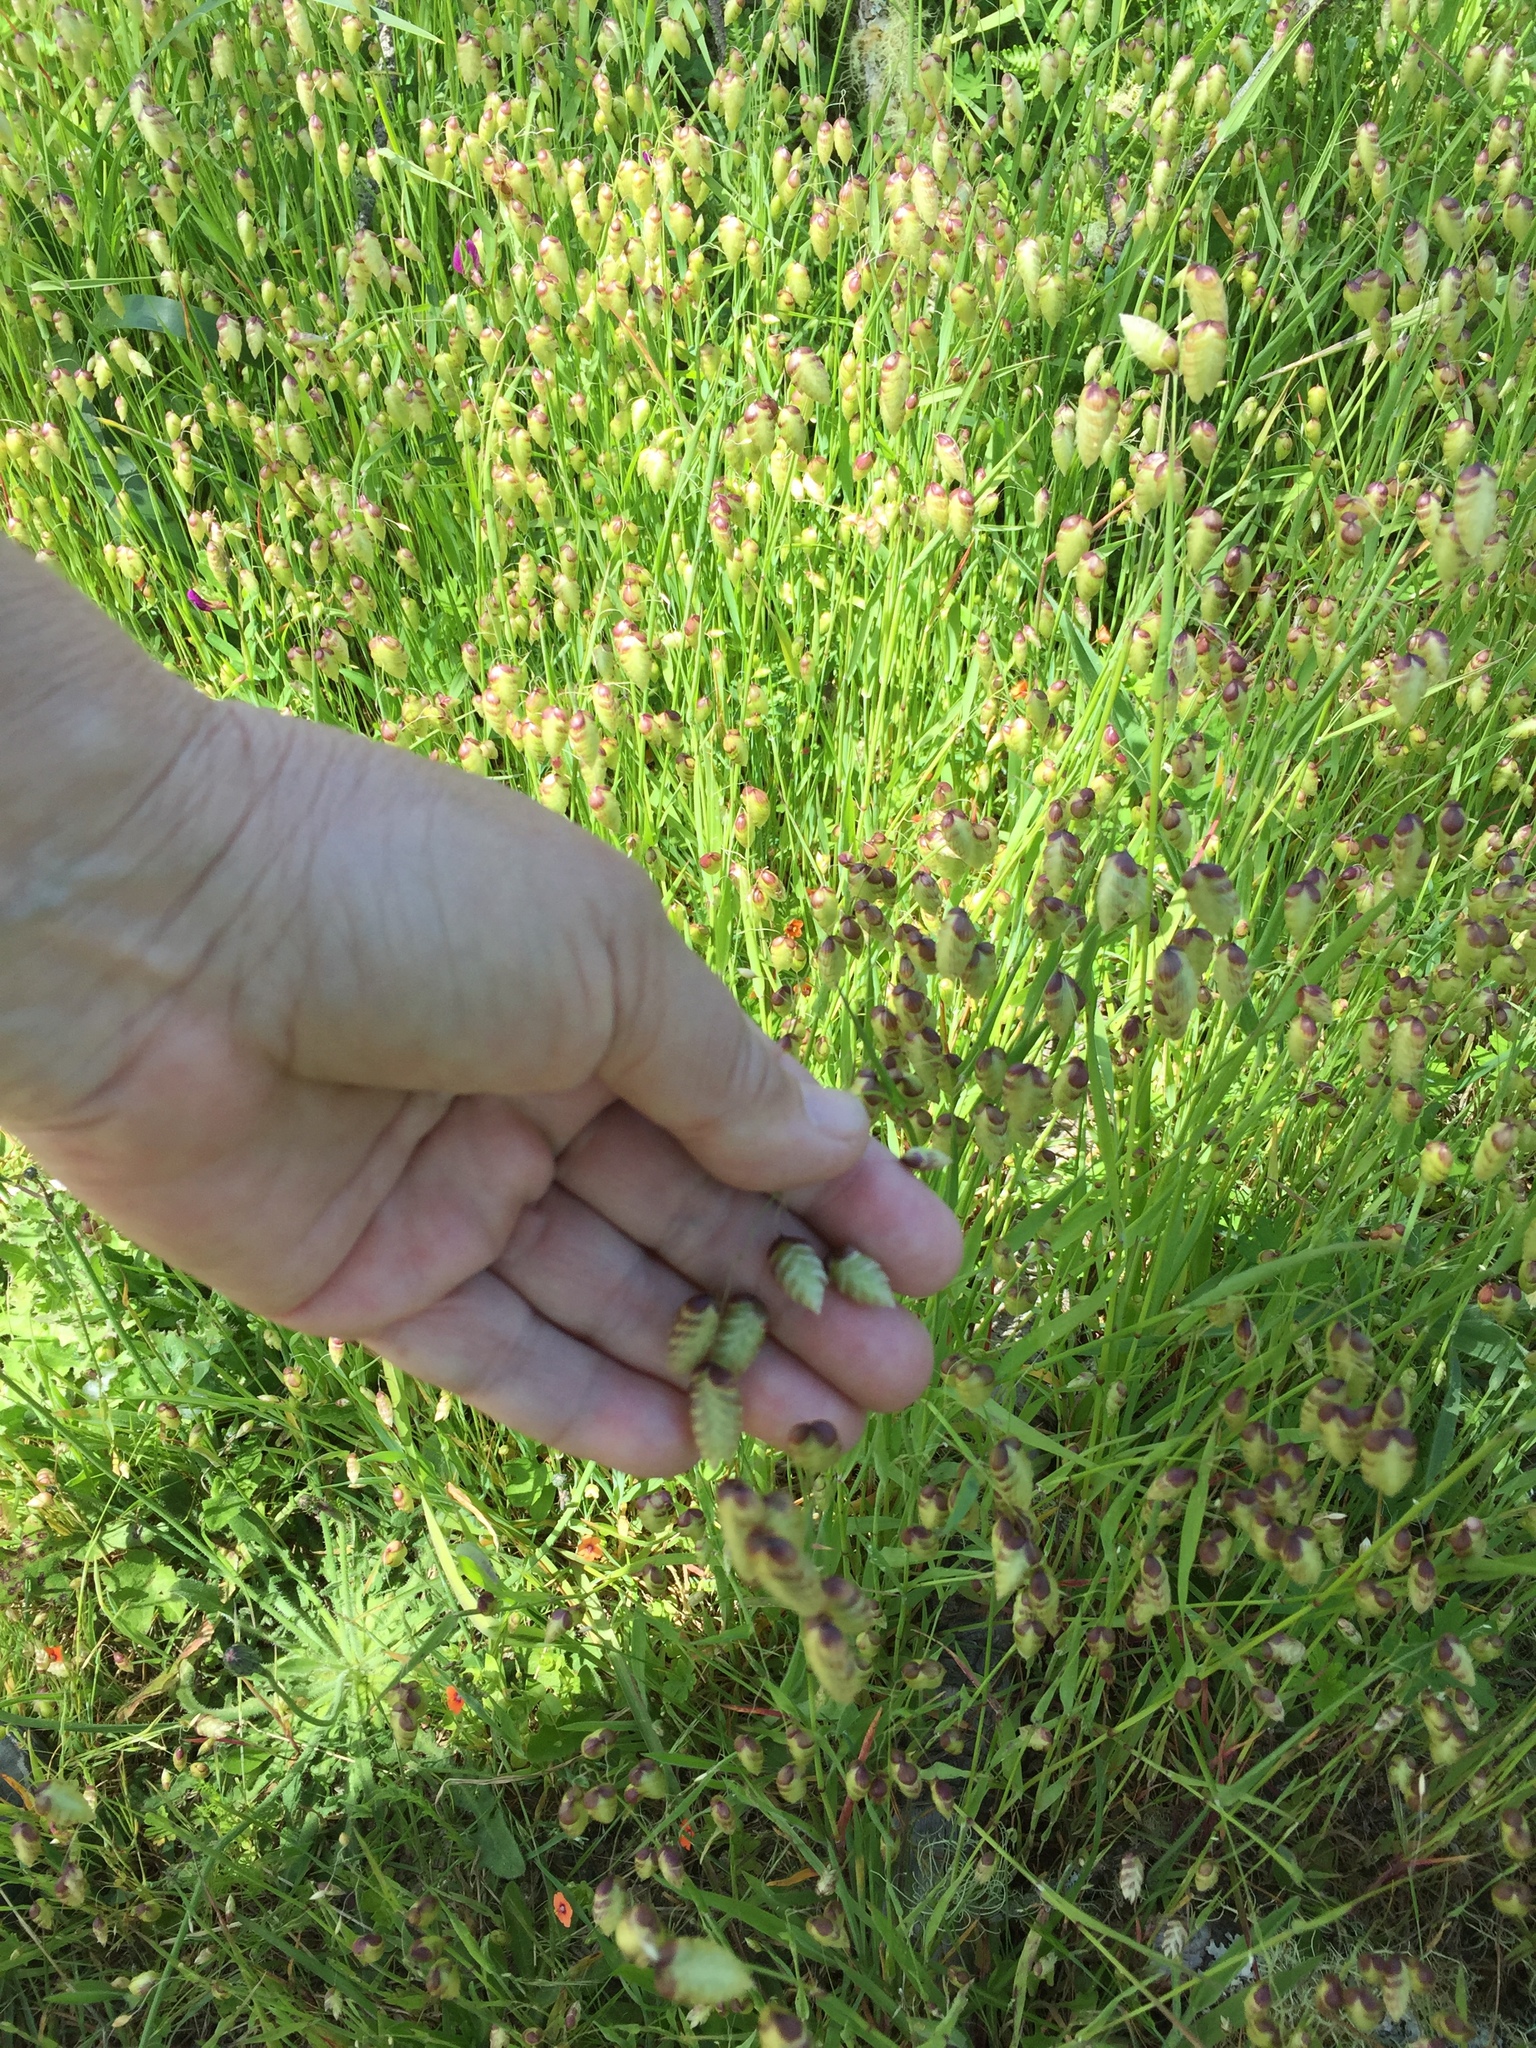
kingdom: Plantae
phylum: Tracheophyta
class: Liliopsida
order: Poales
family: Poaceae
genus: Briza
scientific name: Briza maxima
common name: Big quakinggrass
